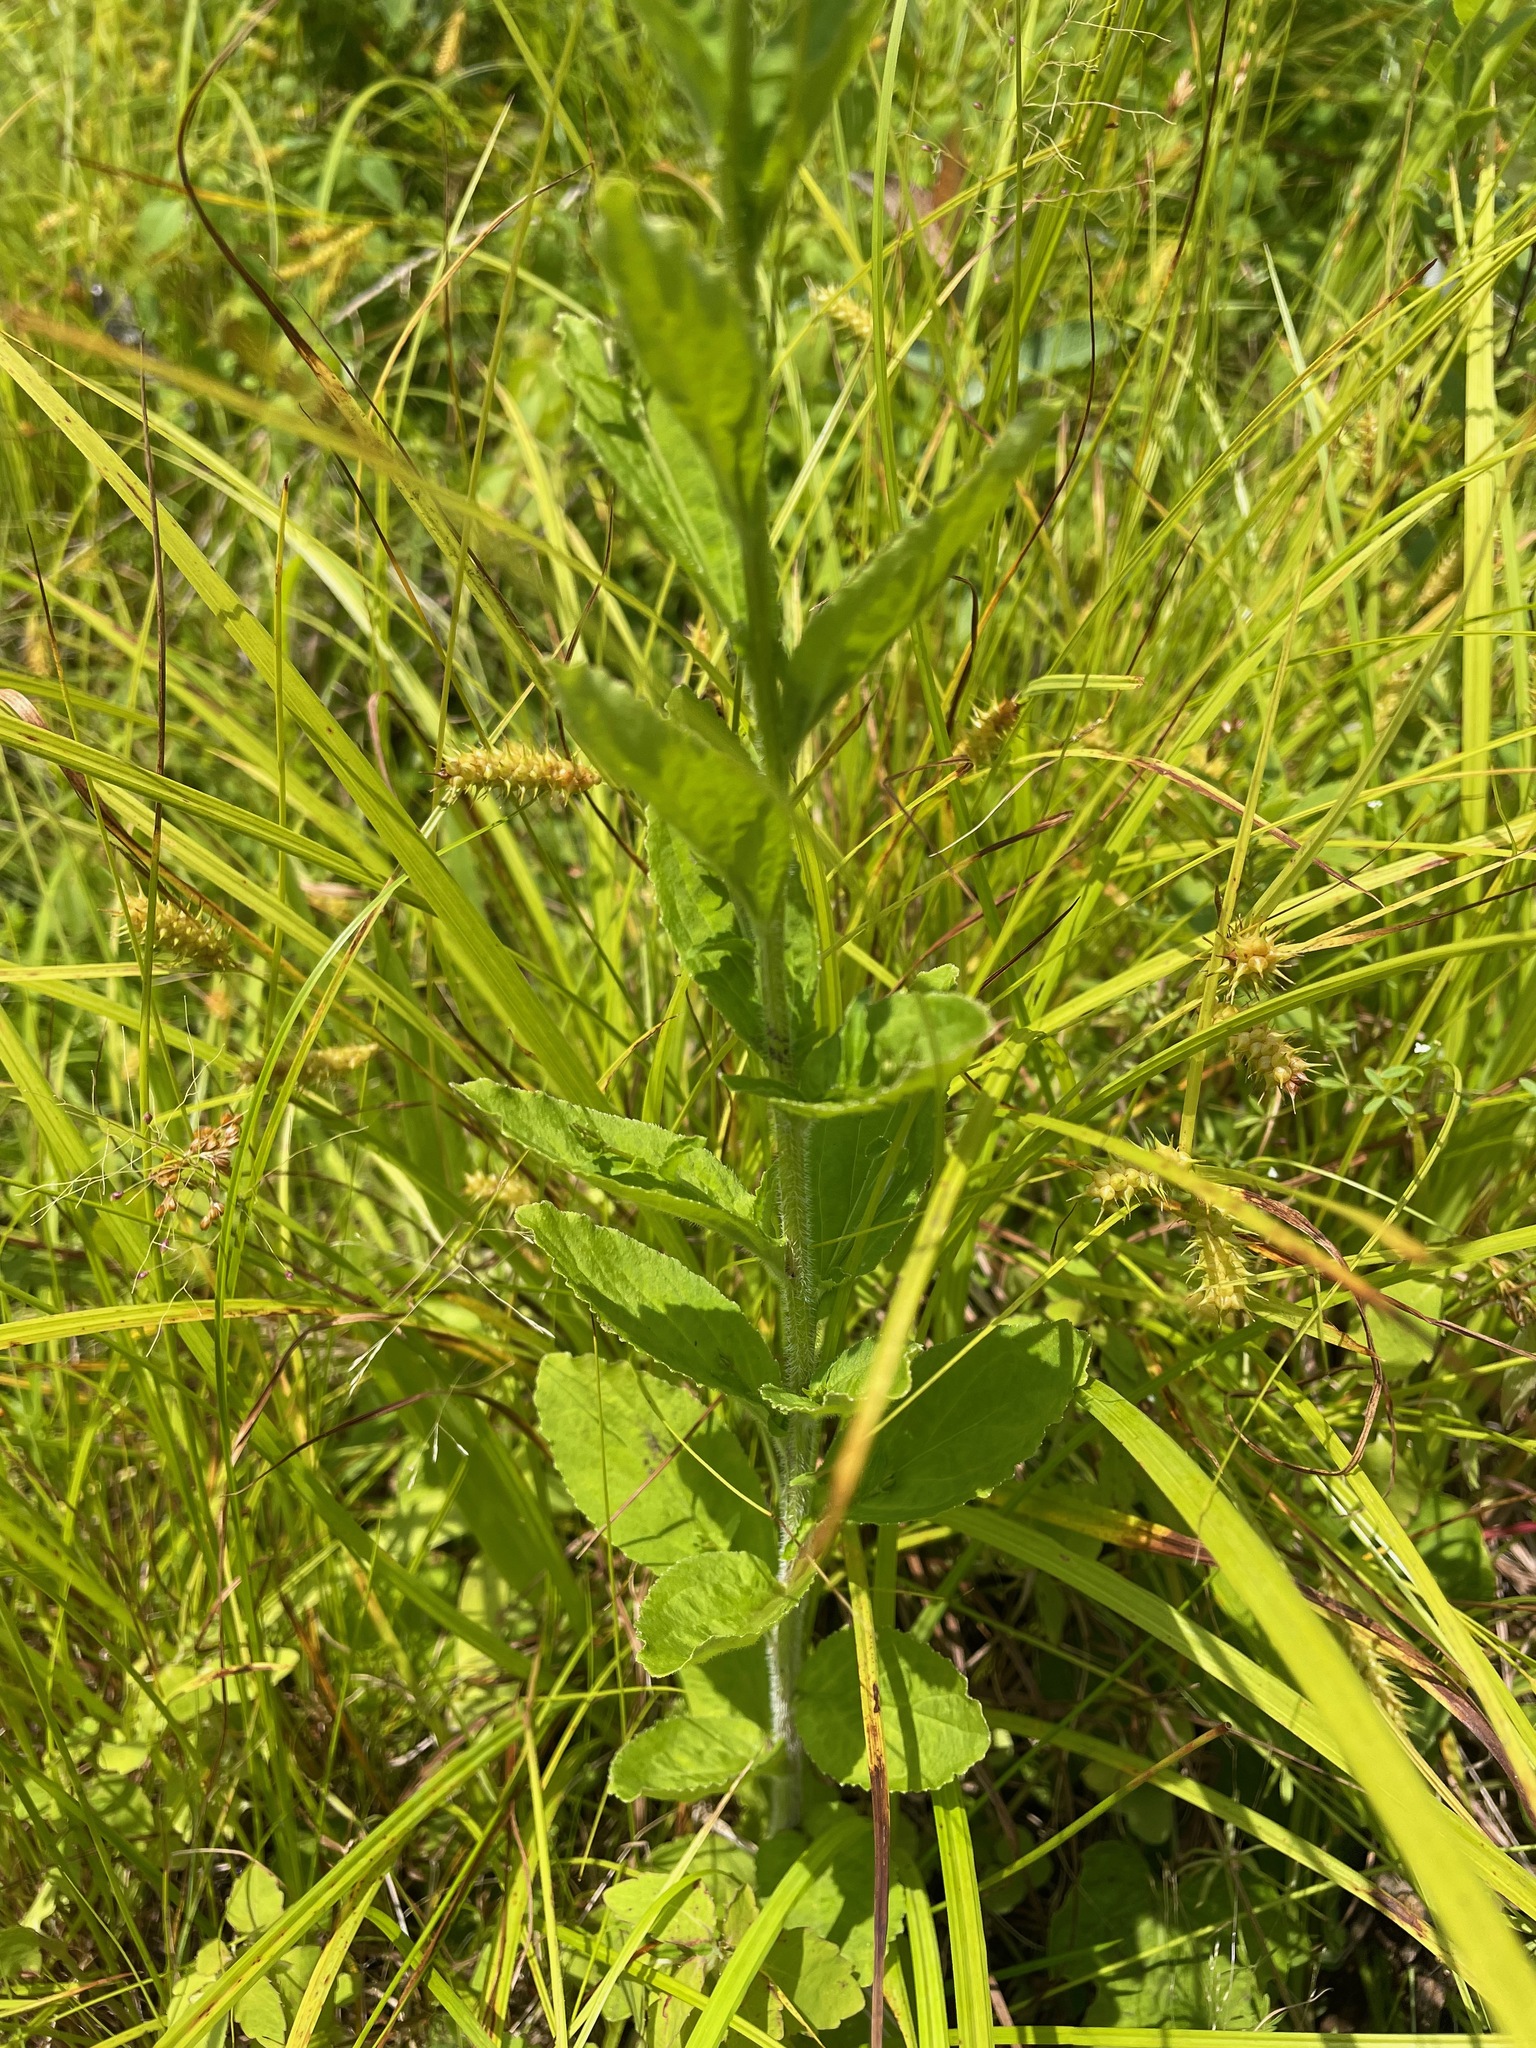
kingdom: Plantae
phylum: Tracheophyta
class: Magnoliopsida
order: Asterales
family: Campanulaceae
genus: Lobelia
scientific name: Lobelia inflata
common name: Indian tobacco
